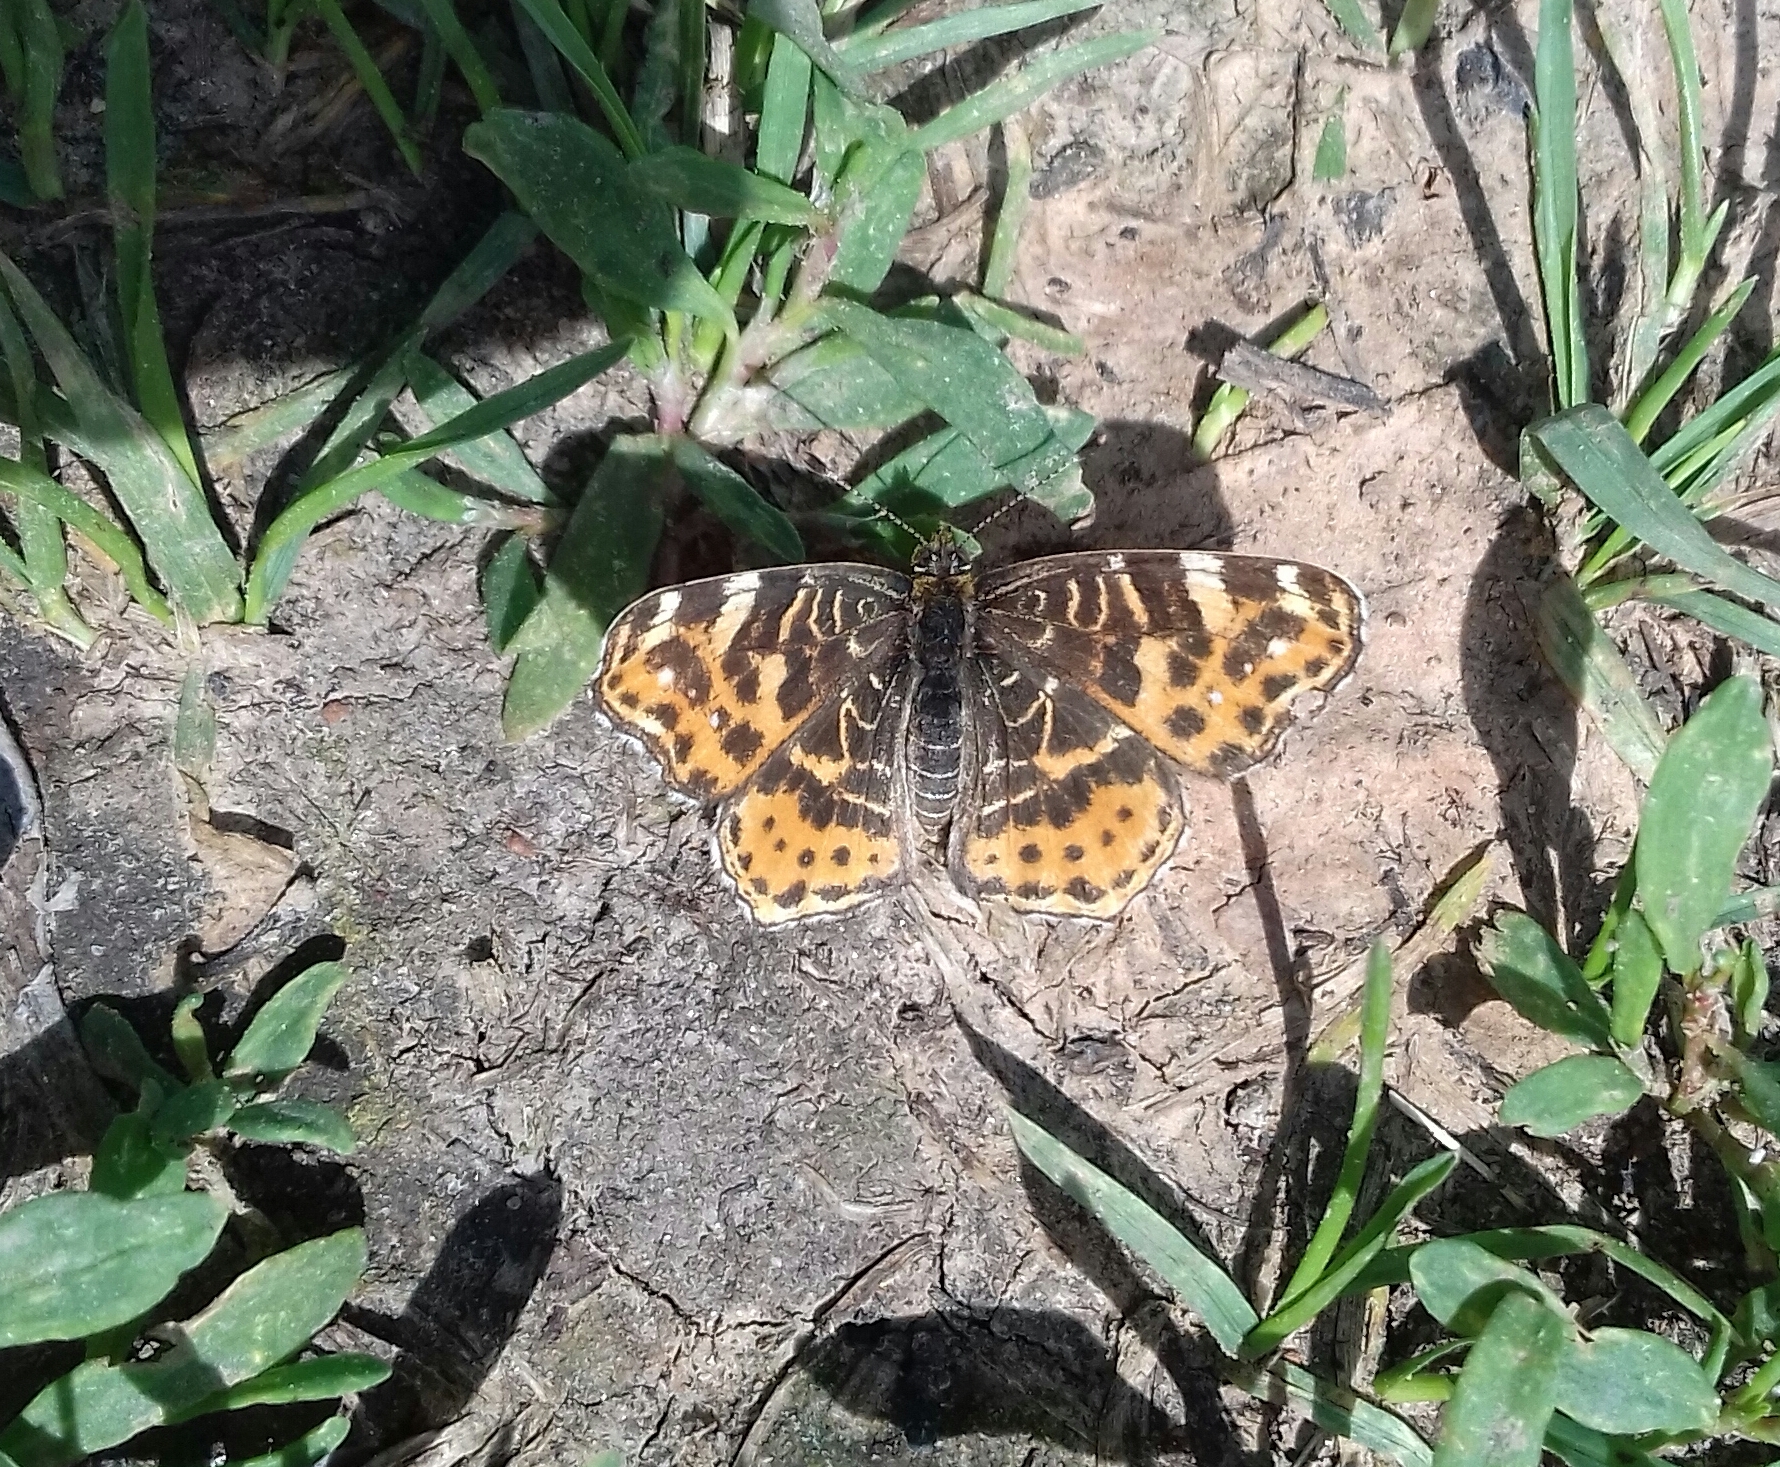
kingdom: Animalia
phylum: Arthropoda
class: Insecta
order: Lepidoptera
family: Nymphalidae
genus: Araschnia
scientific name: Araschnia levana
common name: Map butterfly
